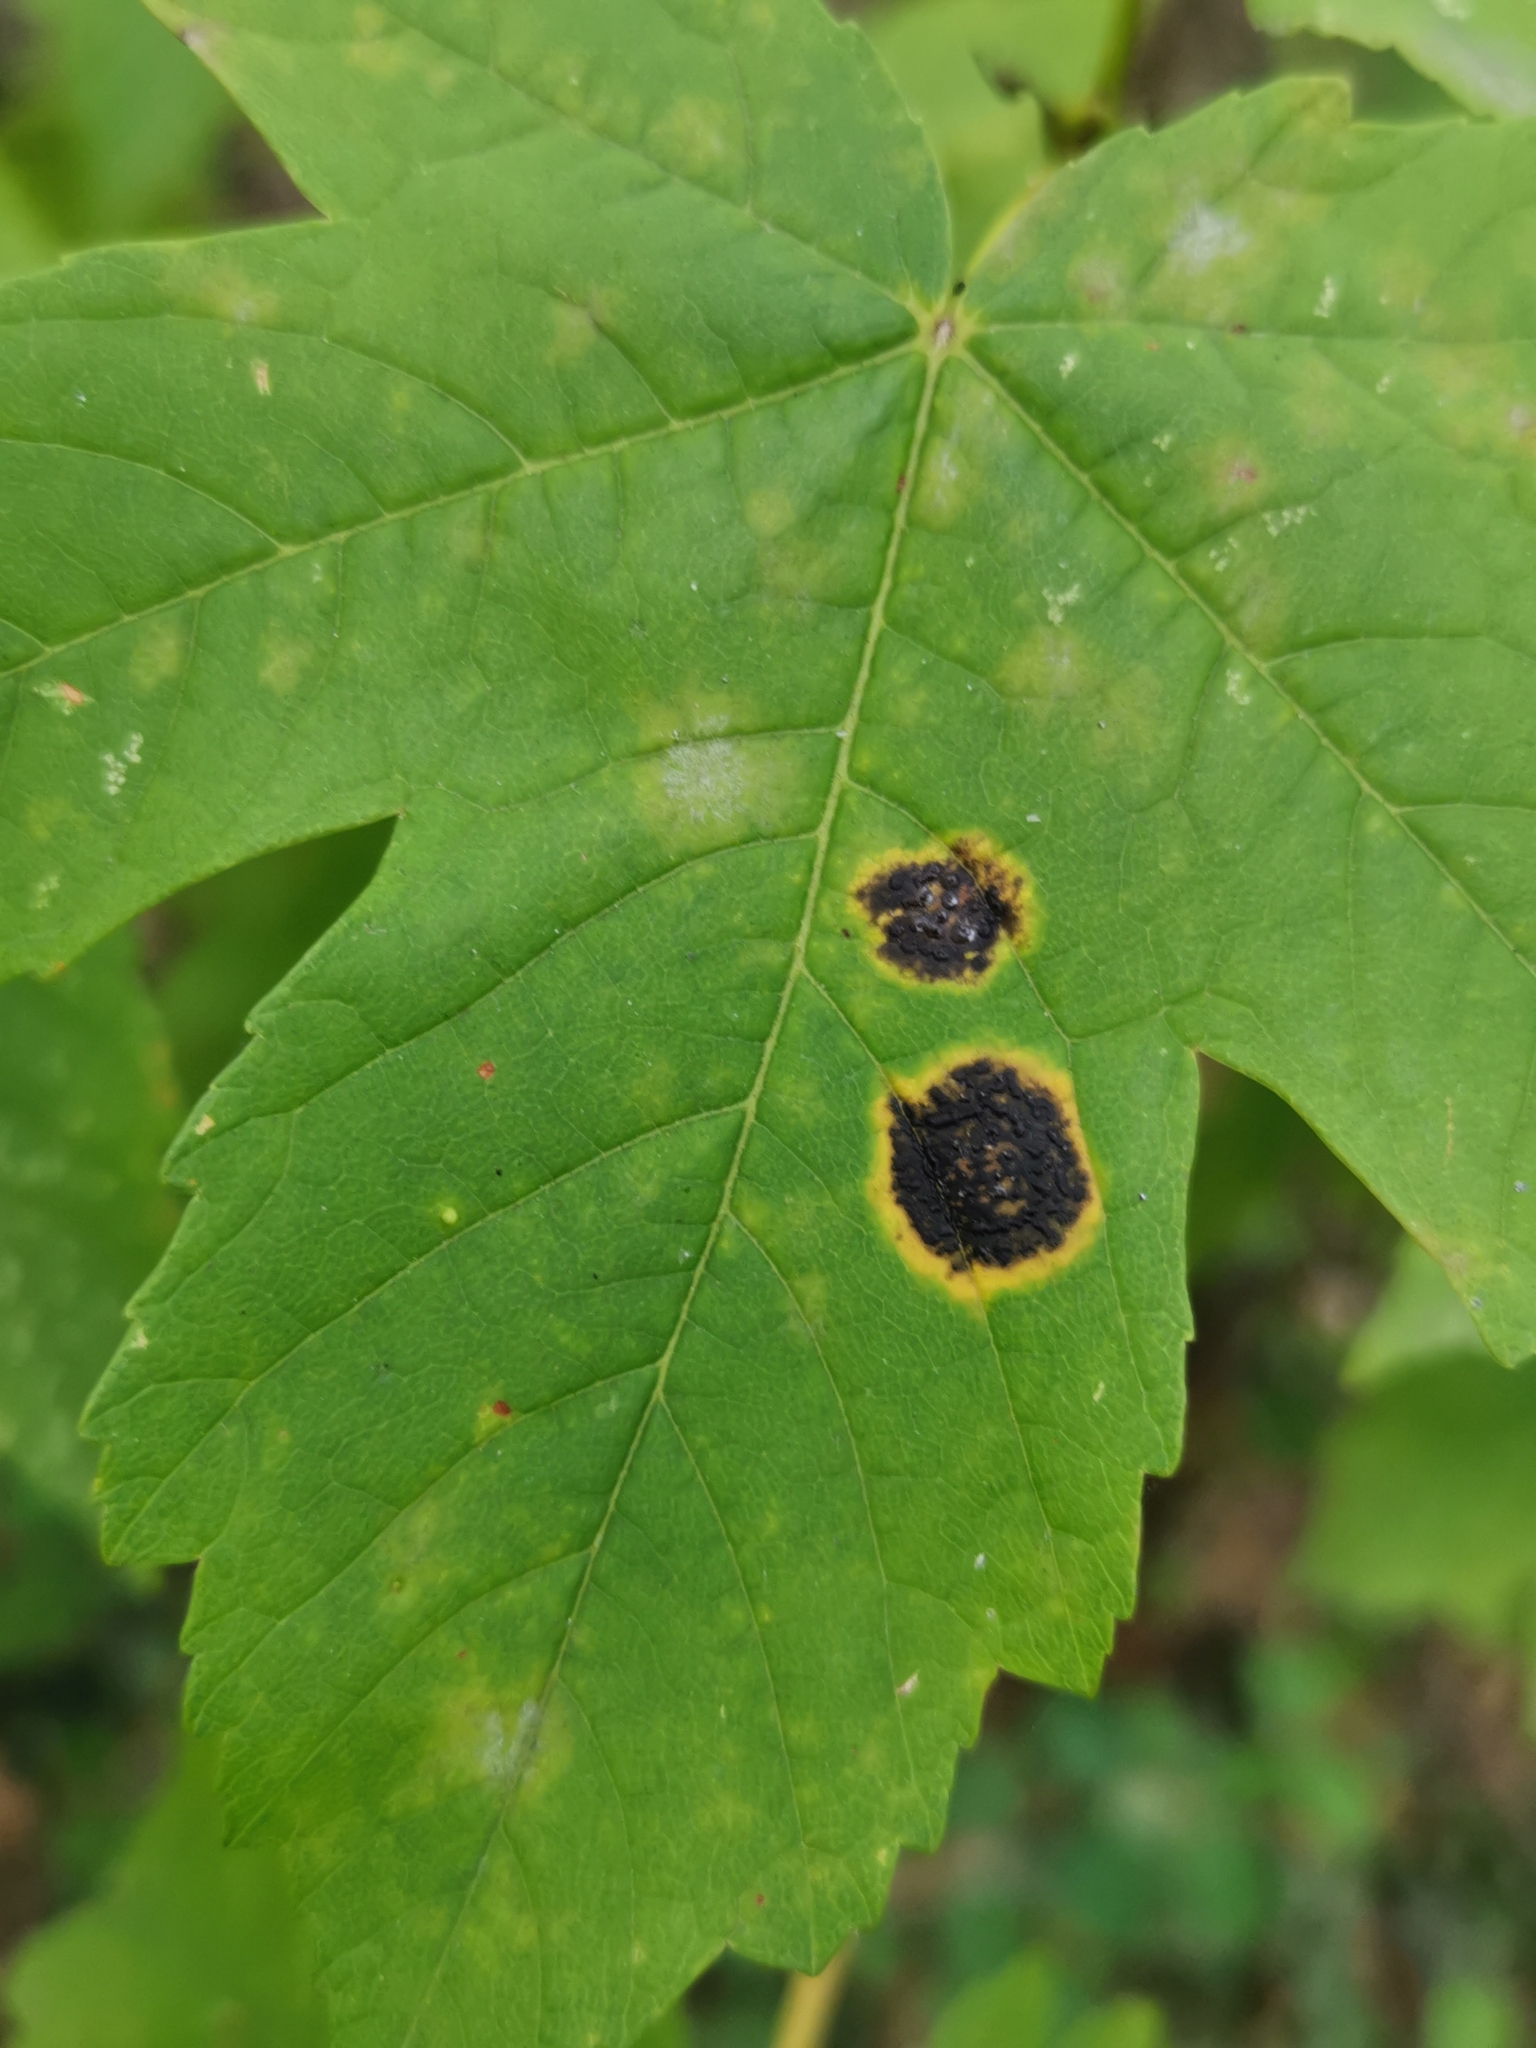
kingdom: Fungi
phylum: Ascomycota
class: Leotiomycetes
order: Rhytismatales
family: Rhytismataceae
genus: Rhytisma
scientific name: Rhytisma acerinum
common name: European tar spot
